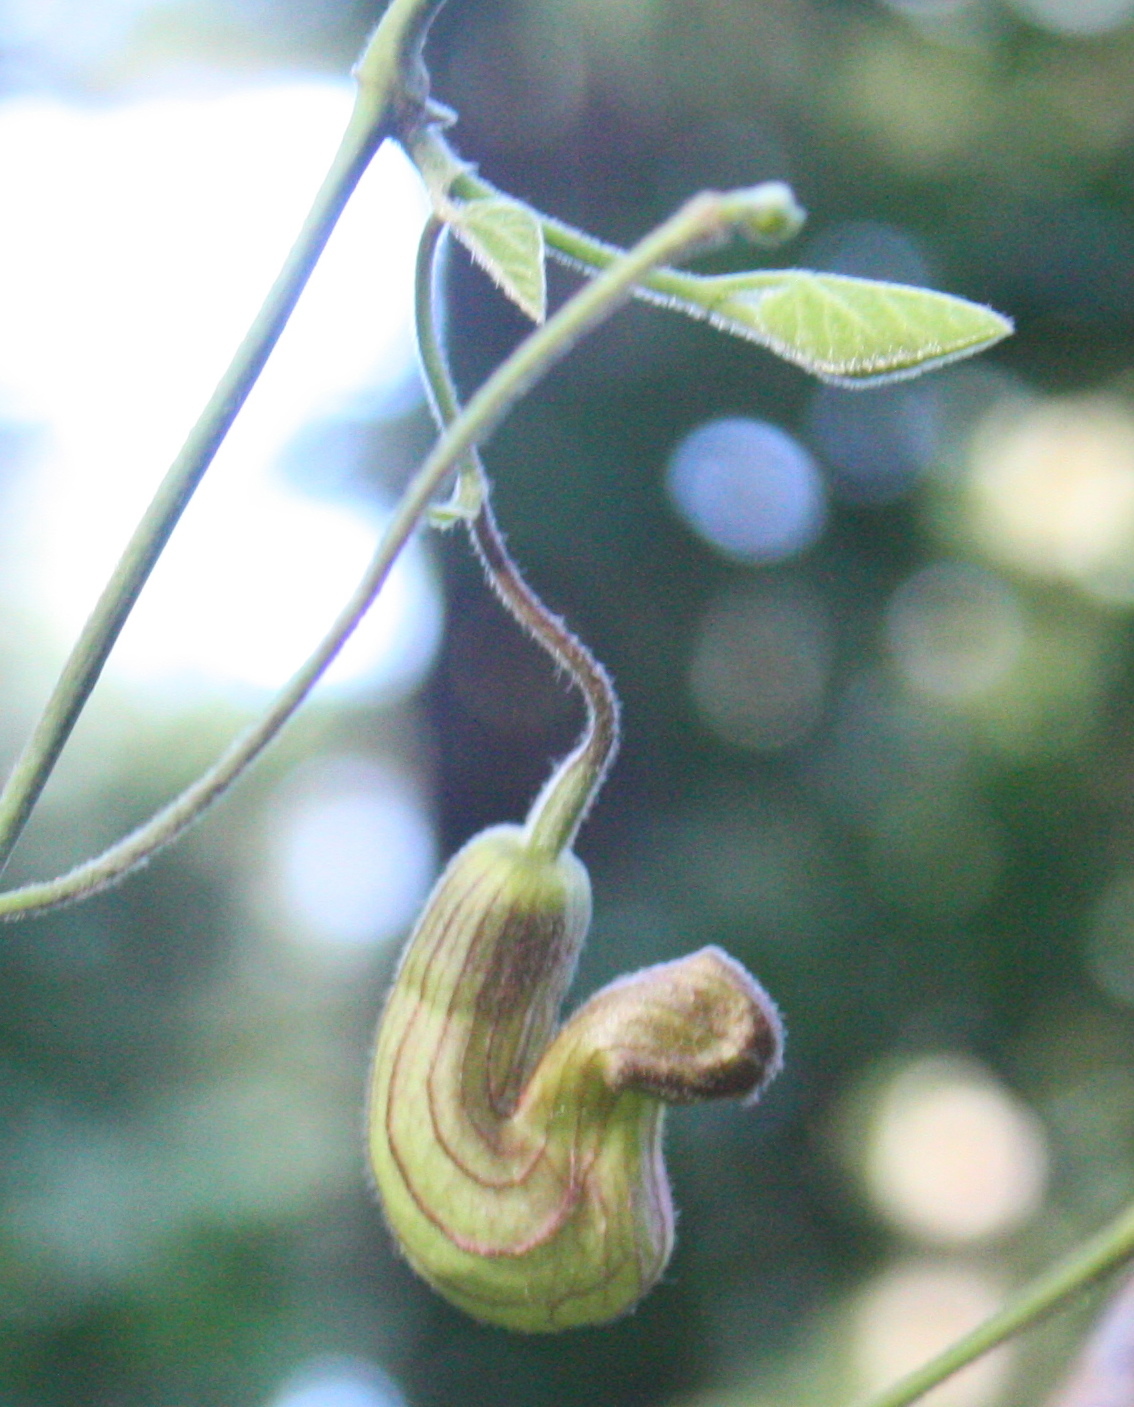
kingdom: Plantae
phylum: Tracheophyta
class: Magnoliopsida
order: Piperales
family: Aristolochiaceae
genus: Isotrema
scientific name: Isotrema californicum
